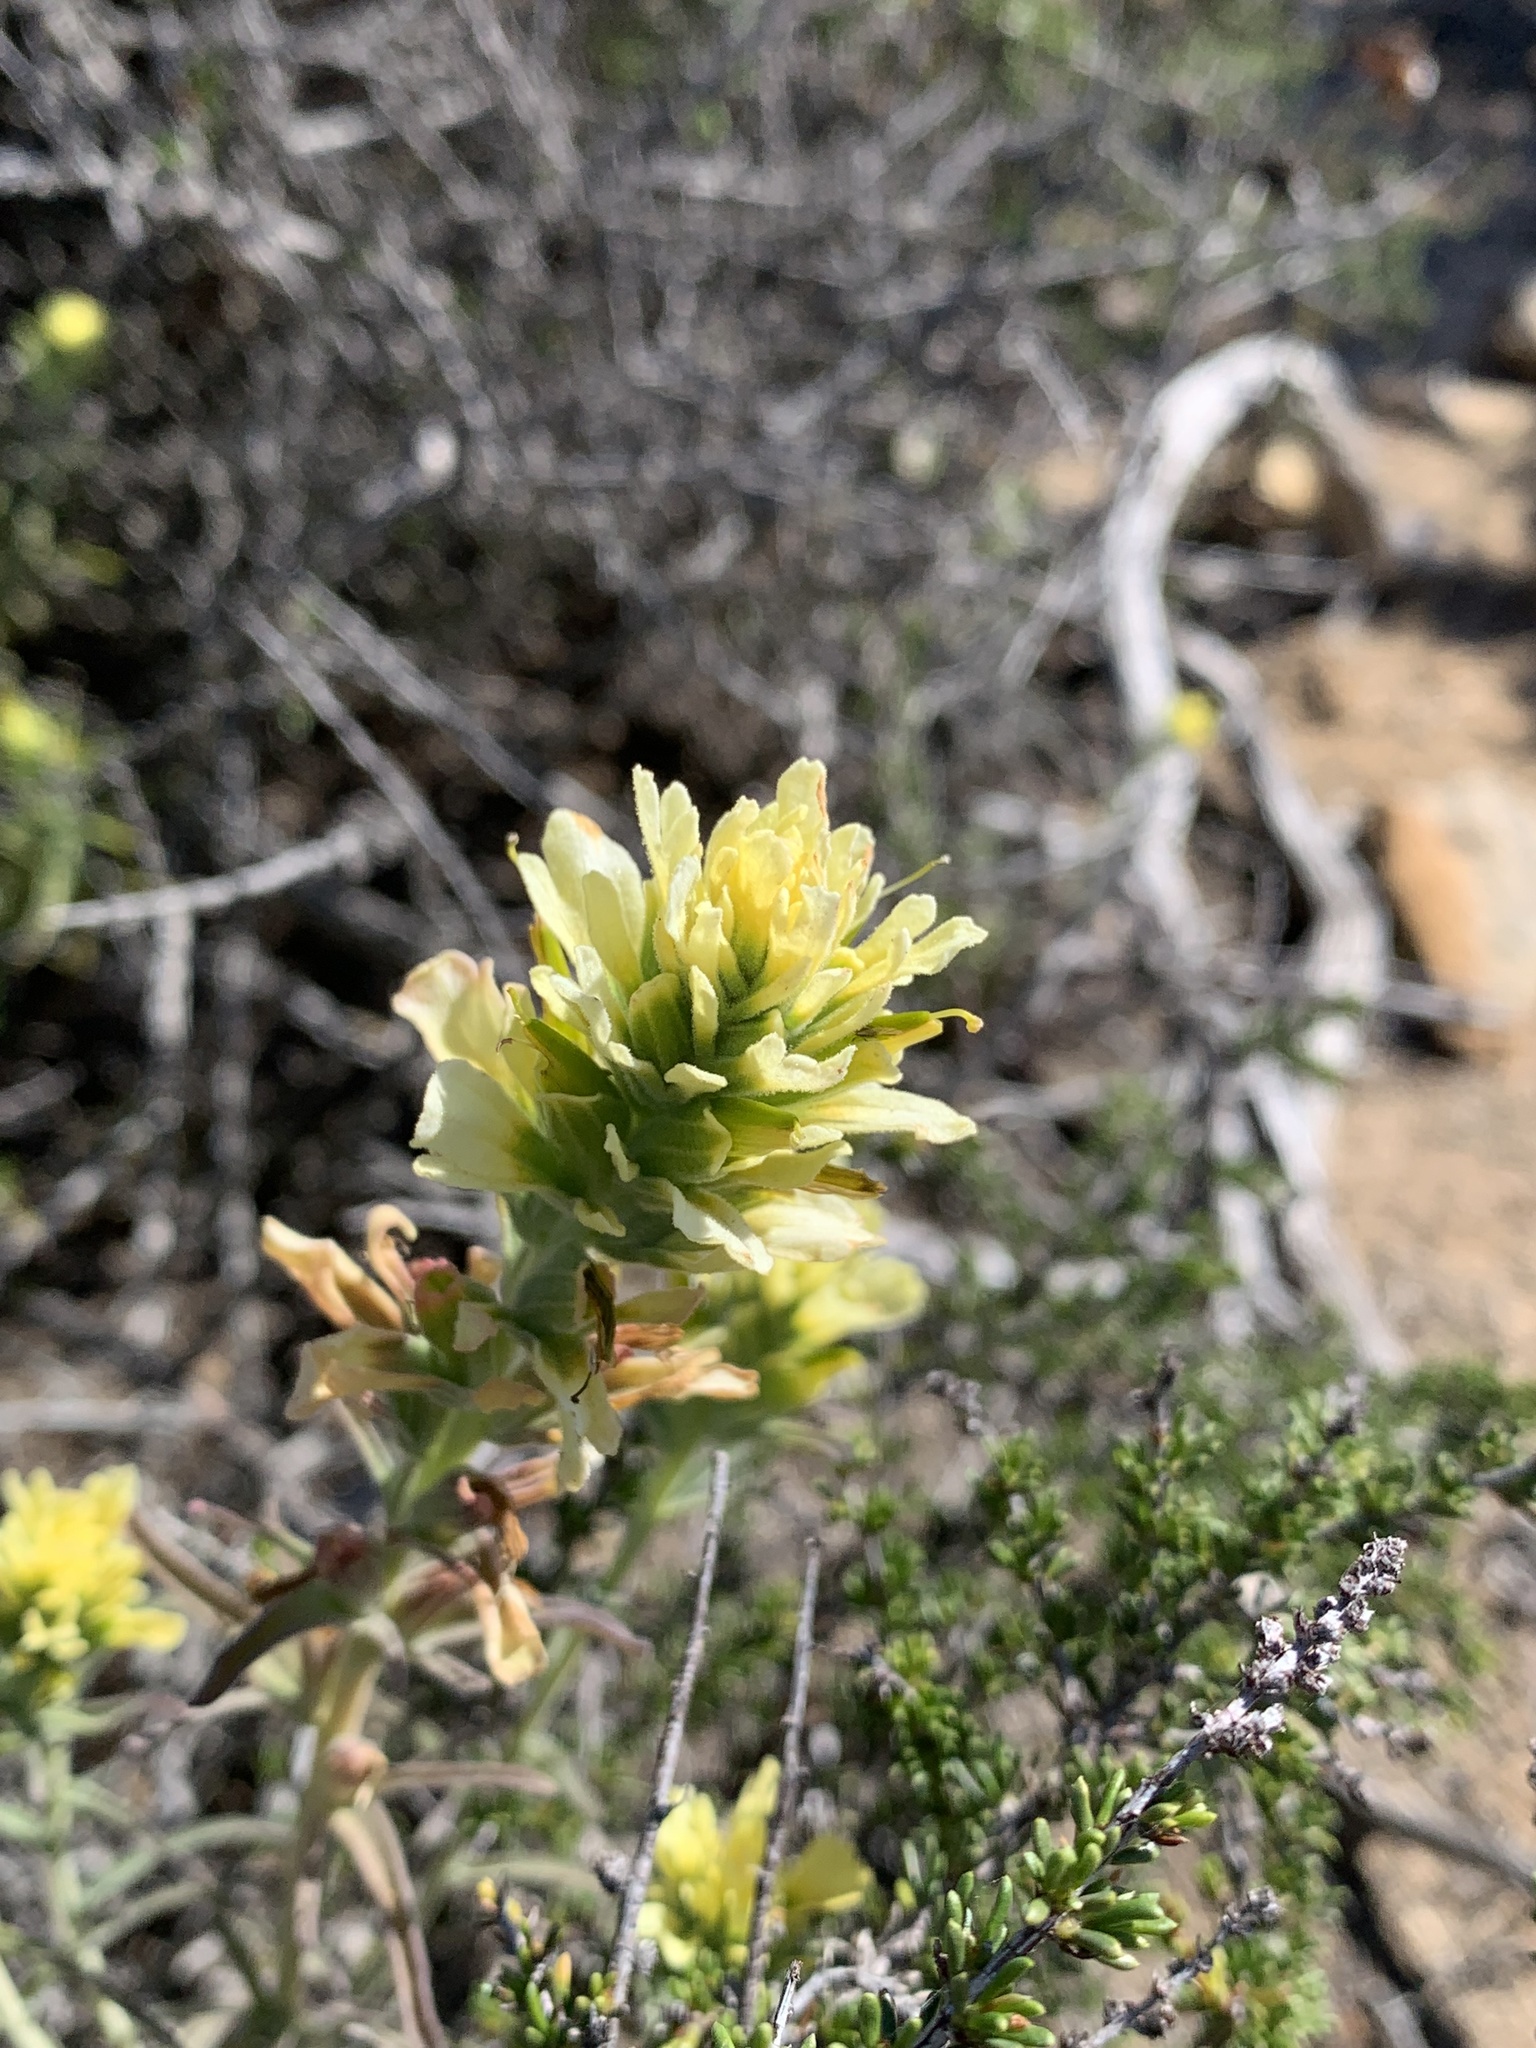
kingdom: Plantae
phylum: Tracheophyta
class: Magnoliopsida
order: Lamiales
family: Orobanchaceae
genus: Castilleja
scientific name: Castilleja foliolosa
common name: Woolly indian paintbrush
